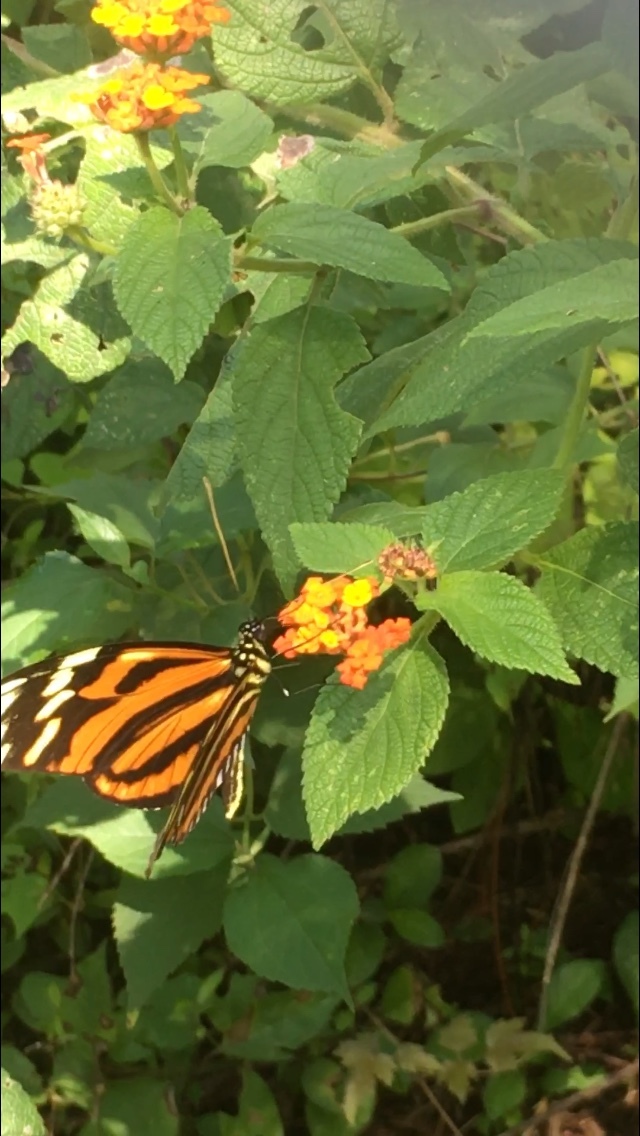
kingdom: Animalia
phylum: Arthropoda
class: Insecta
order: Lepidoptera
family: Nymphalidae
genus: Heliconius
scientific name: Heliconius ismenius
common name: Ismenius tiger
